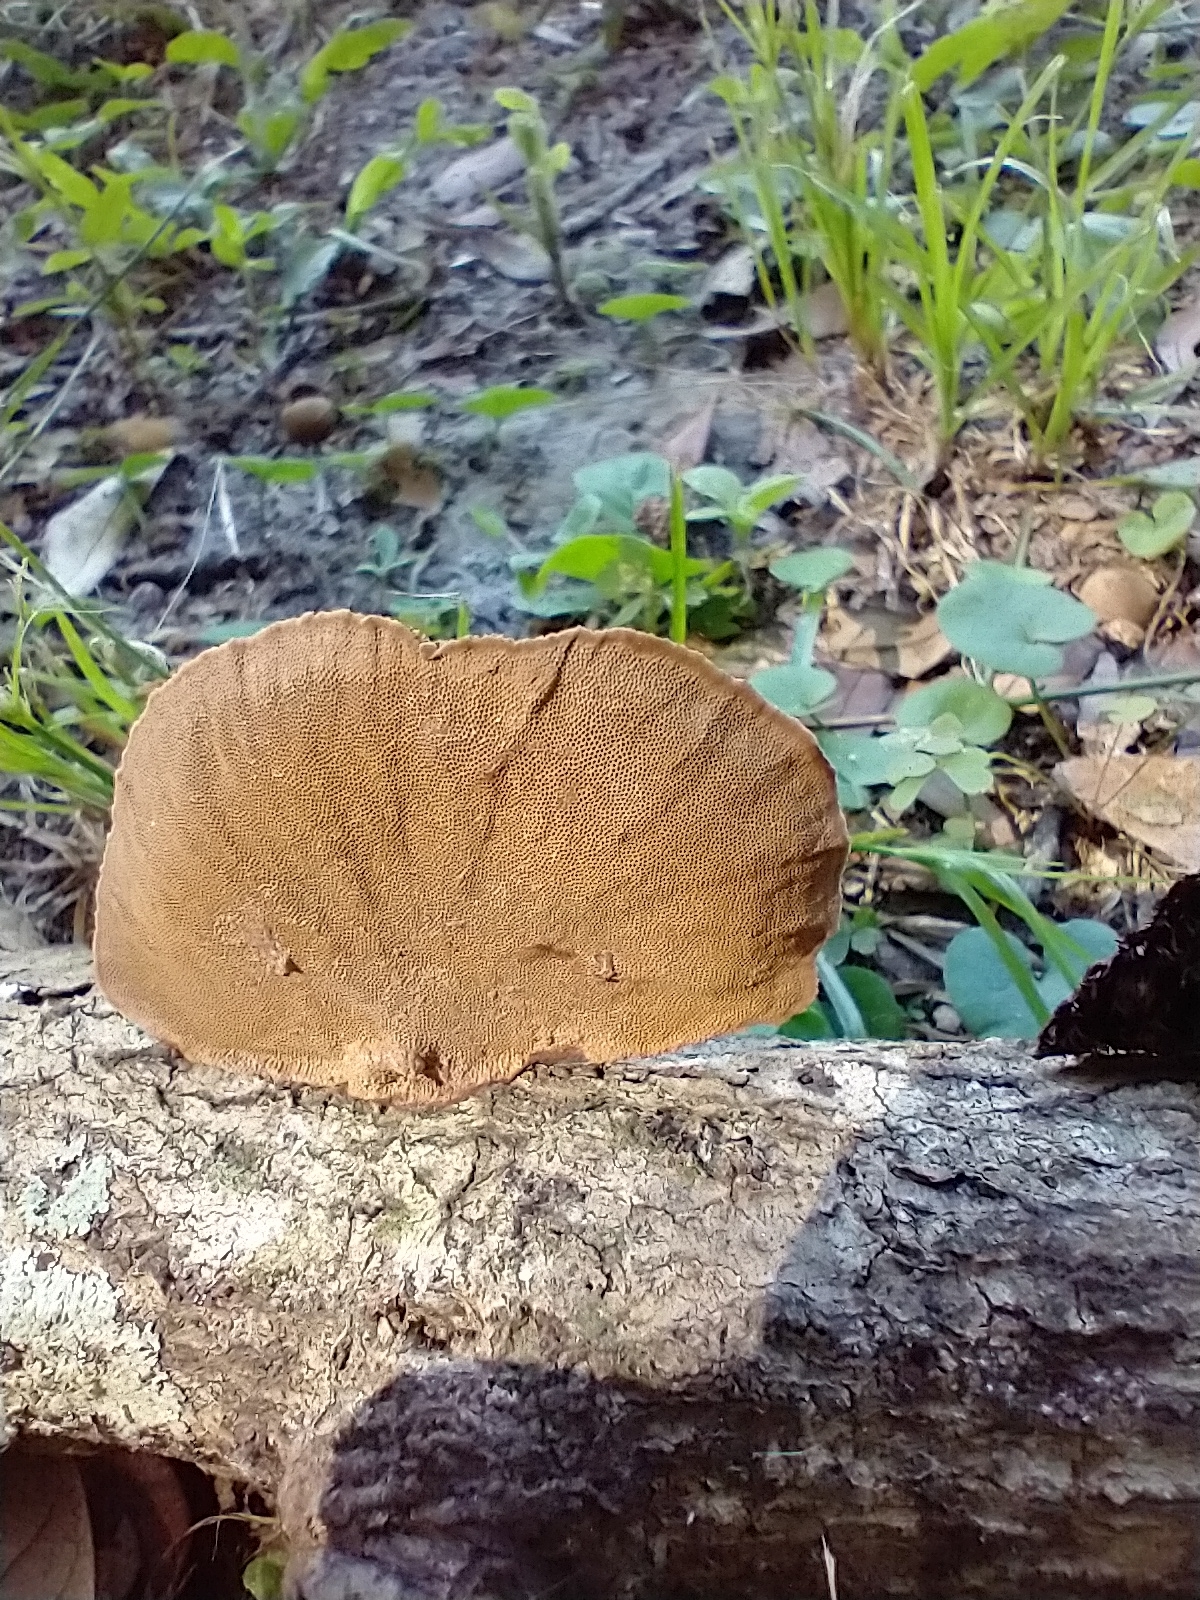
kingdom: Fungi
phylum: Basidiomycota
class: Agaricomycetes
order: Polyporales
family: Cerrenaceae
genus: Cerrena
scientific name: Cerrena hydnoides
